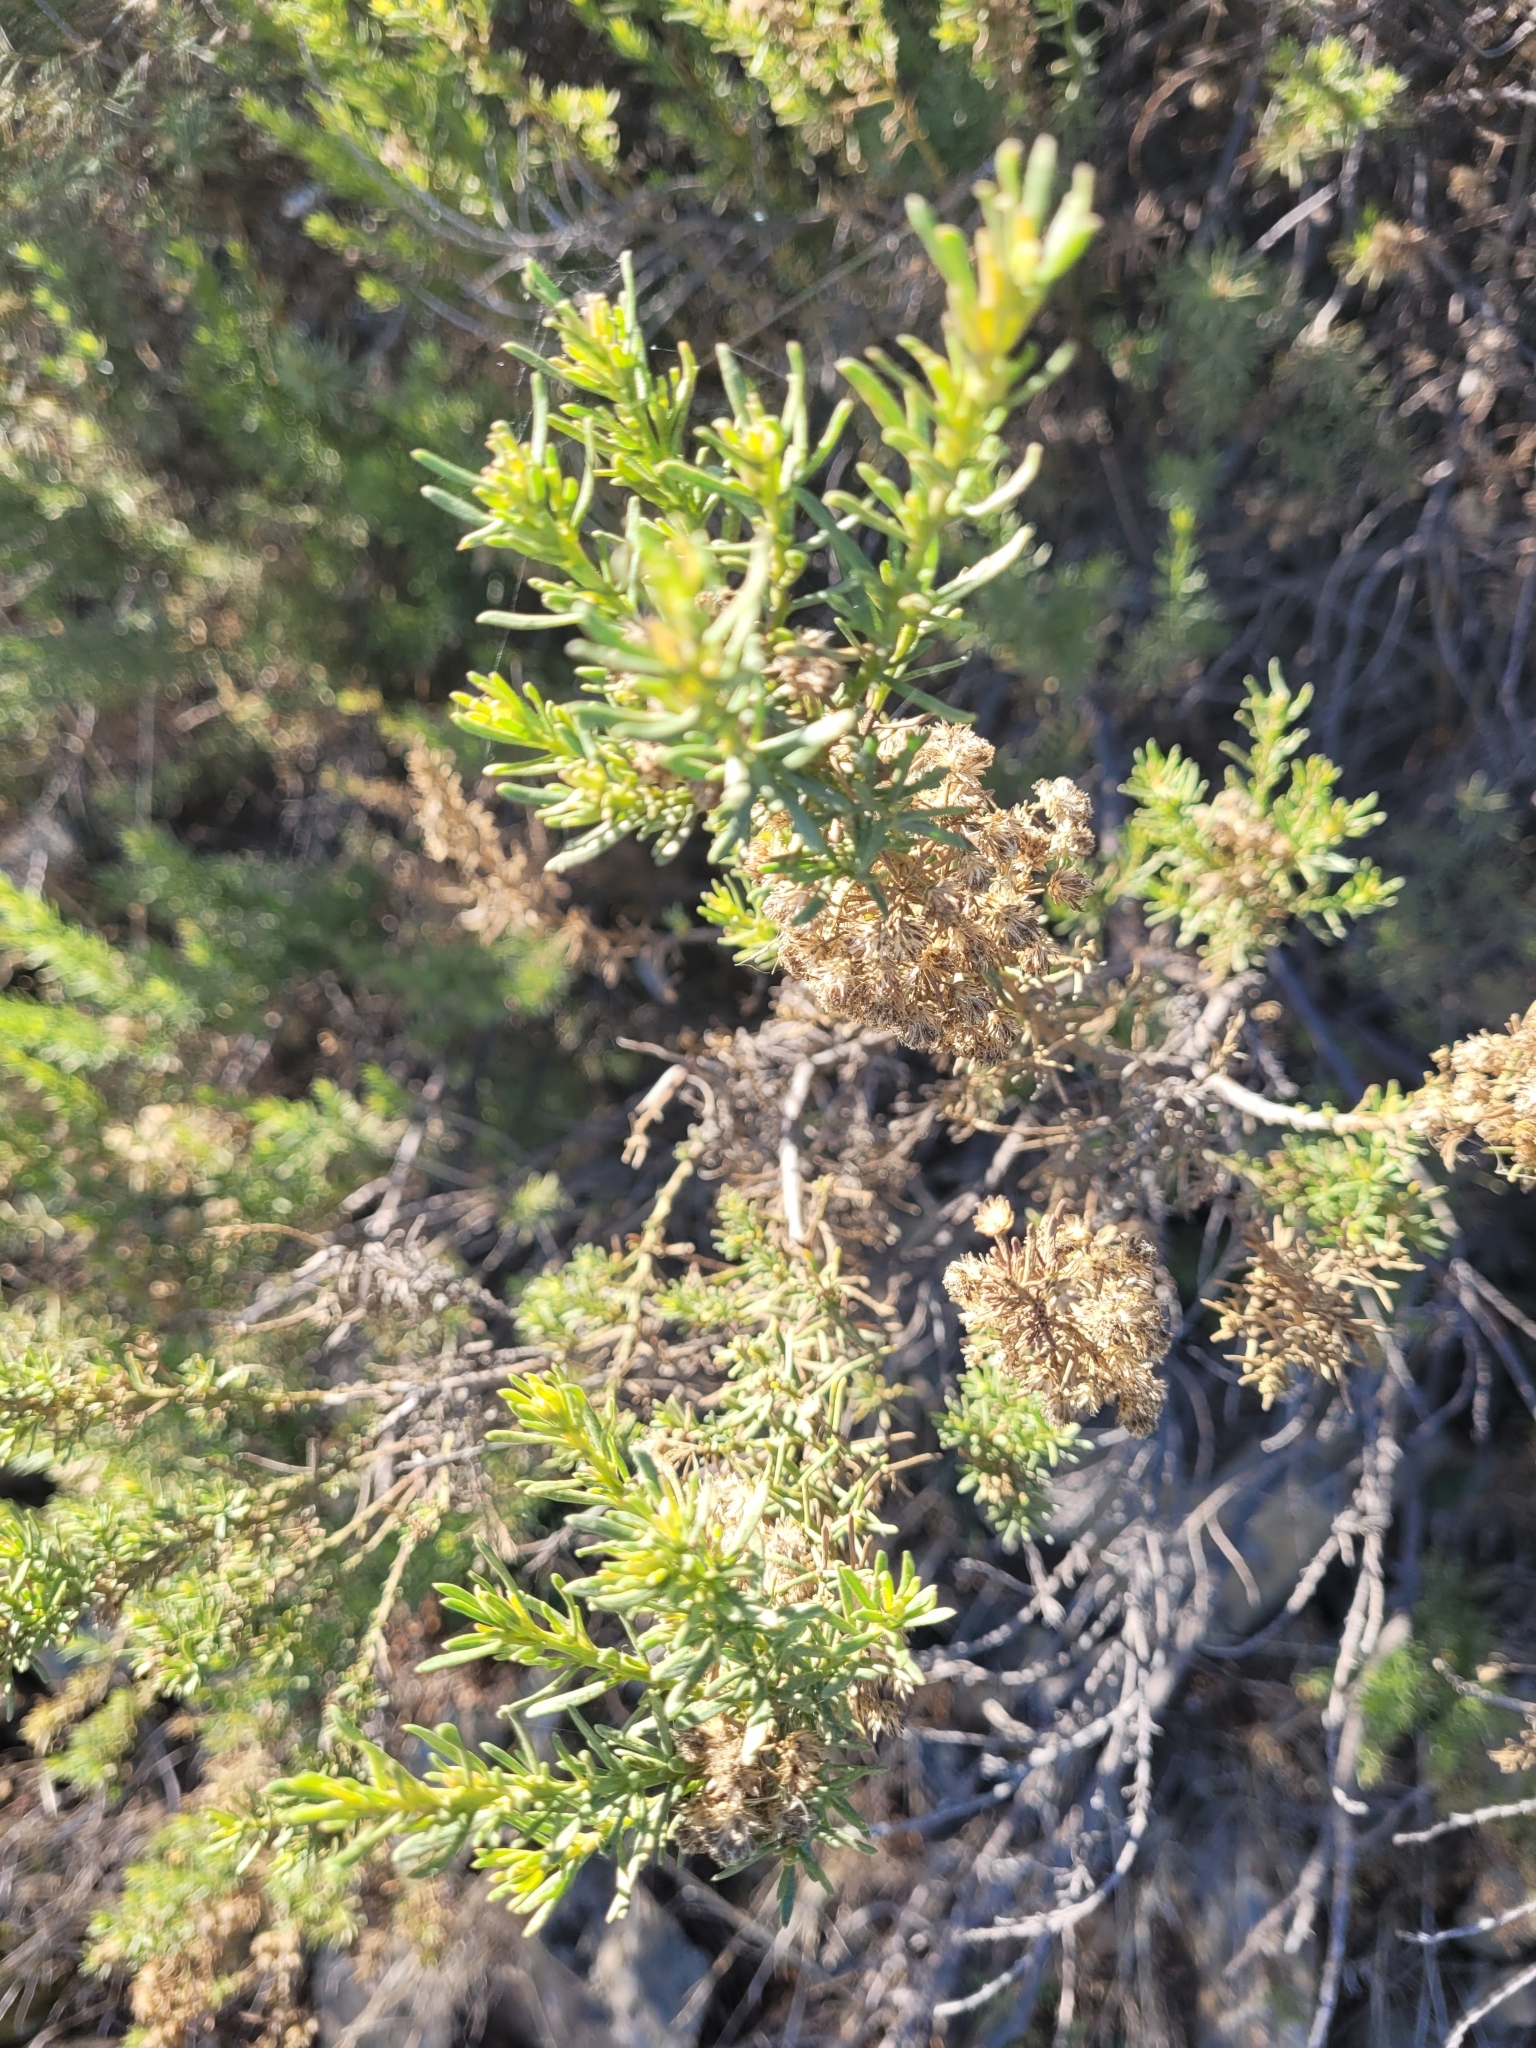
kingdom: Plantae
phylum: Tracheophyta
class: Magnoliopsida
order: Asterales
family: Asteraceae
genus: Baccharis
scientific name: Baccharis linearis
